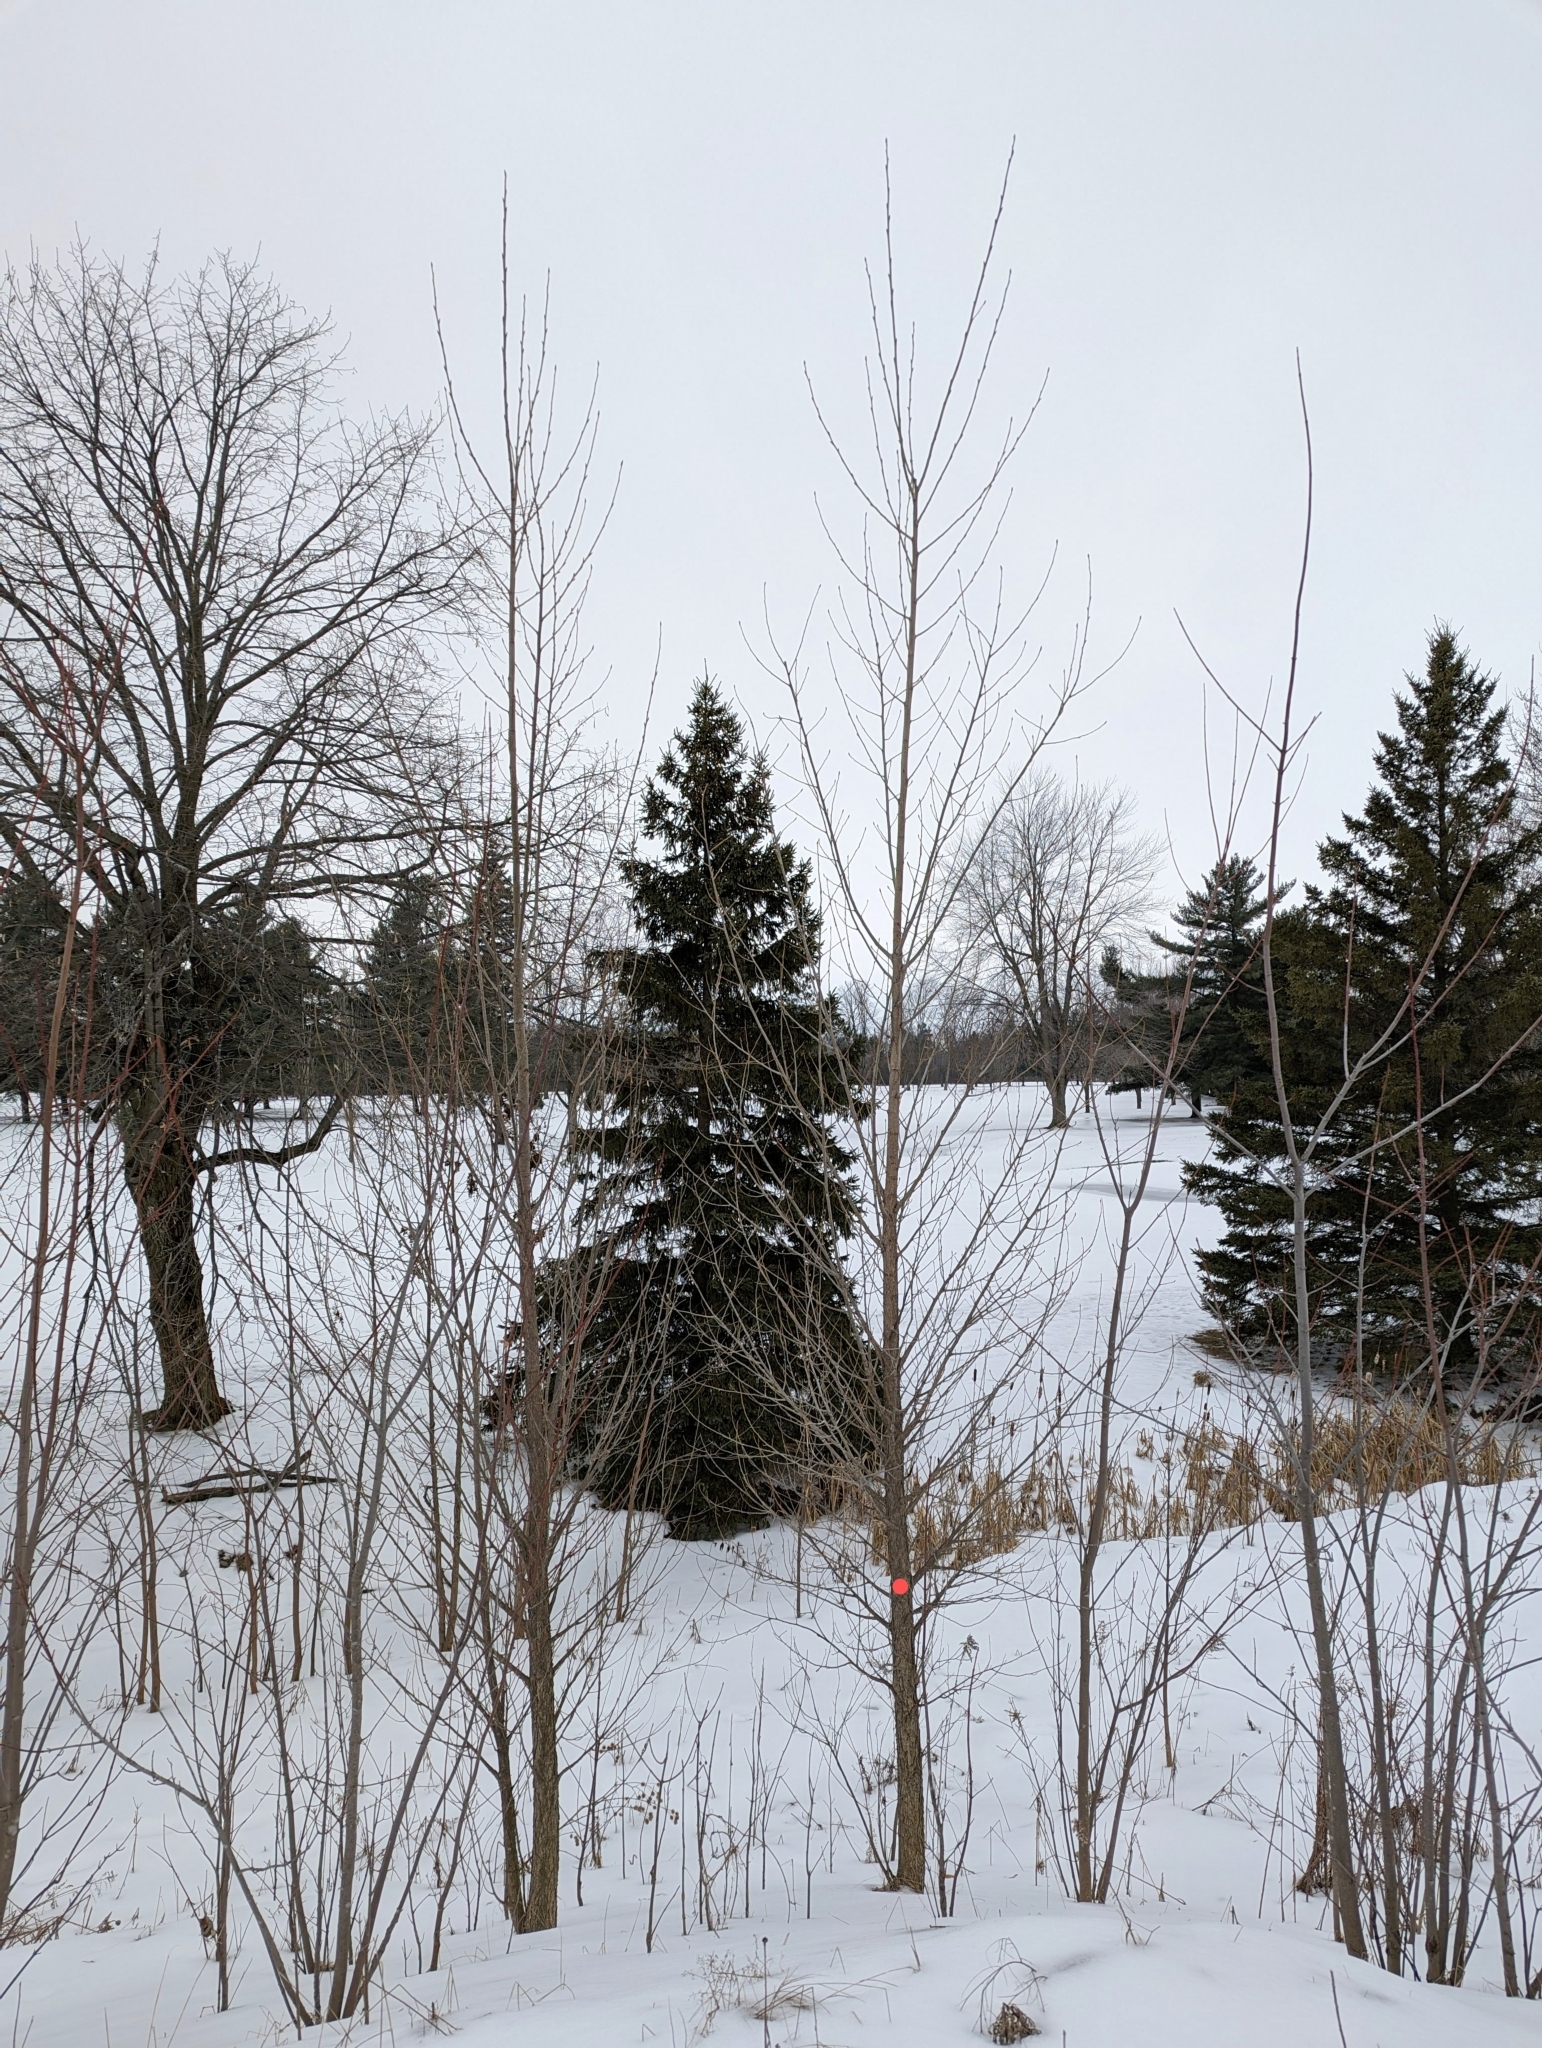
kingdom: Plantae
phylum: Tracheophyta
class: Magnoliopsida
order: Malpighiales
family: Salicaceae
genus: Populus
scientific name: Populus deltoides
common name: Eastern cottonwood
